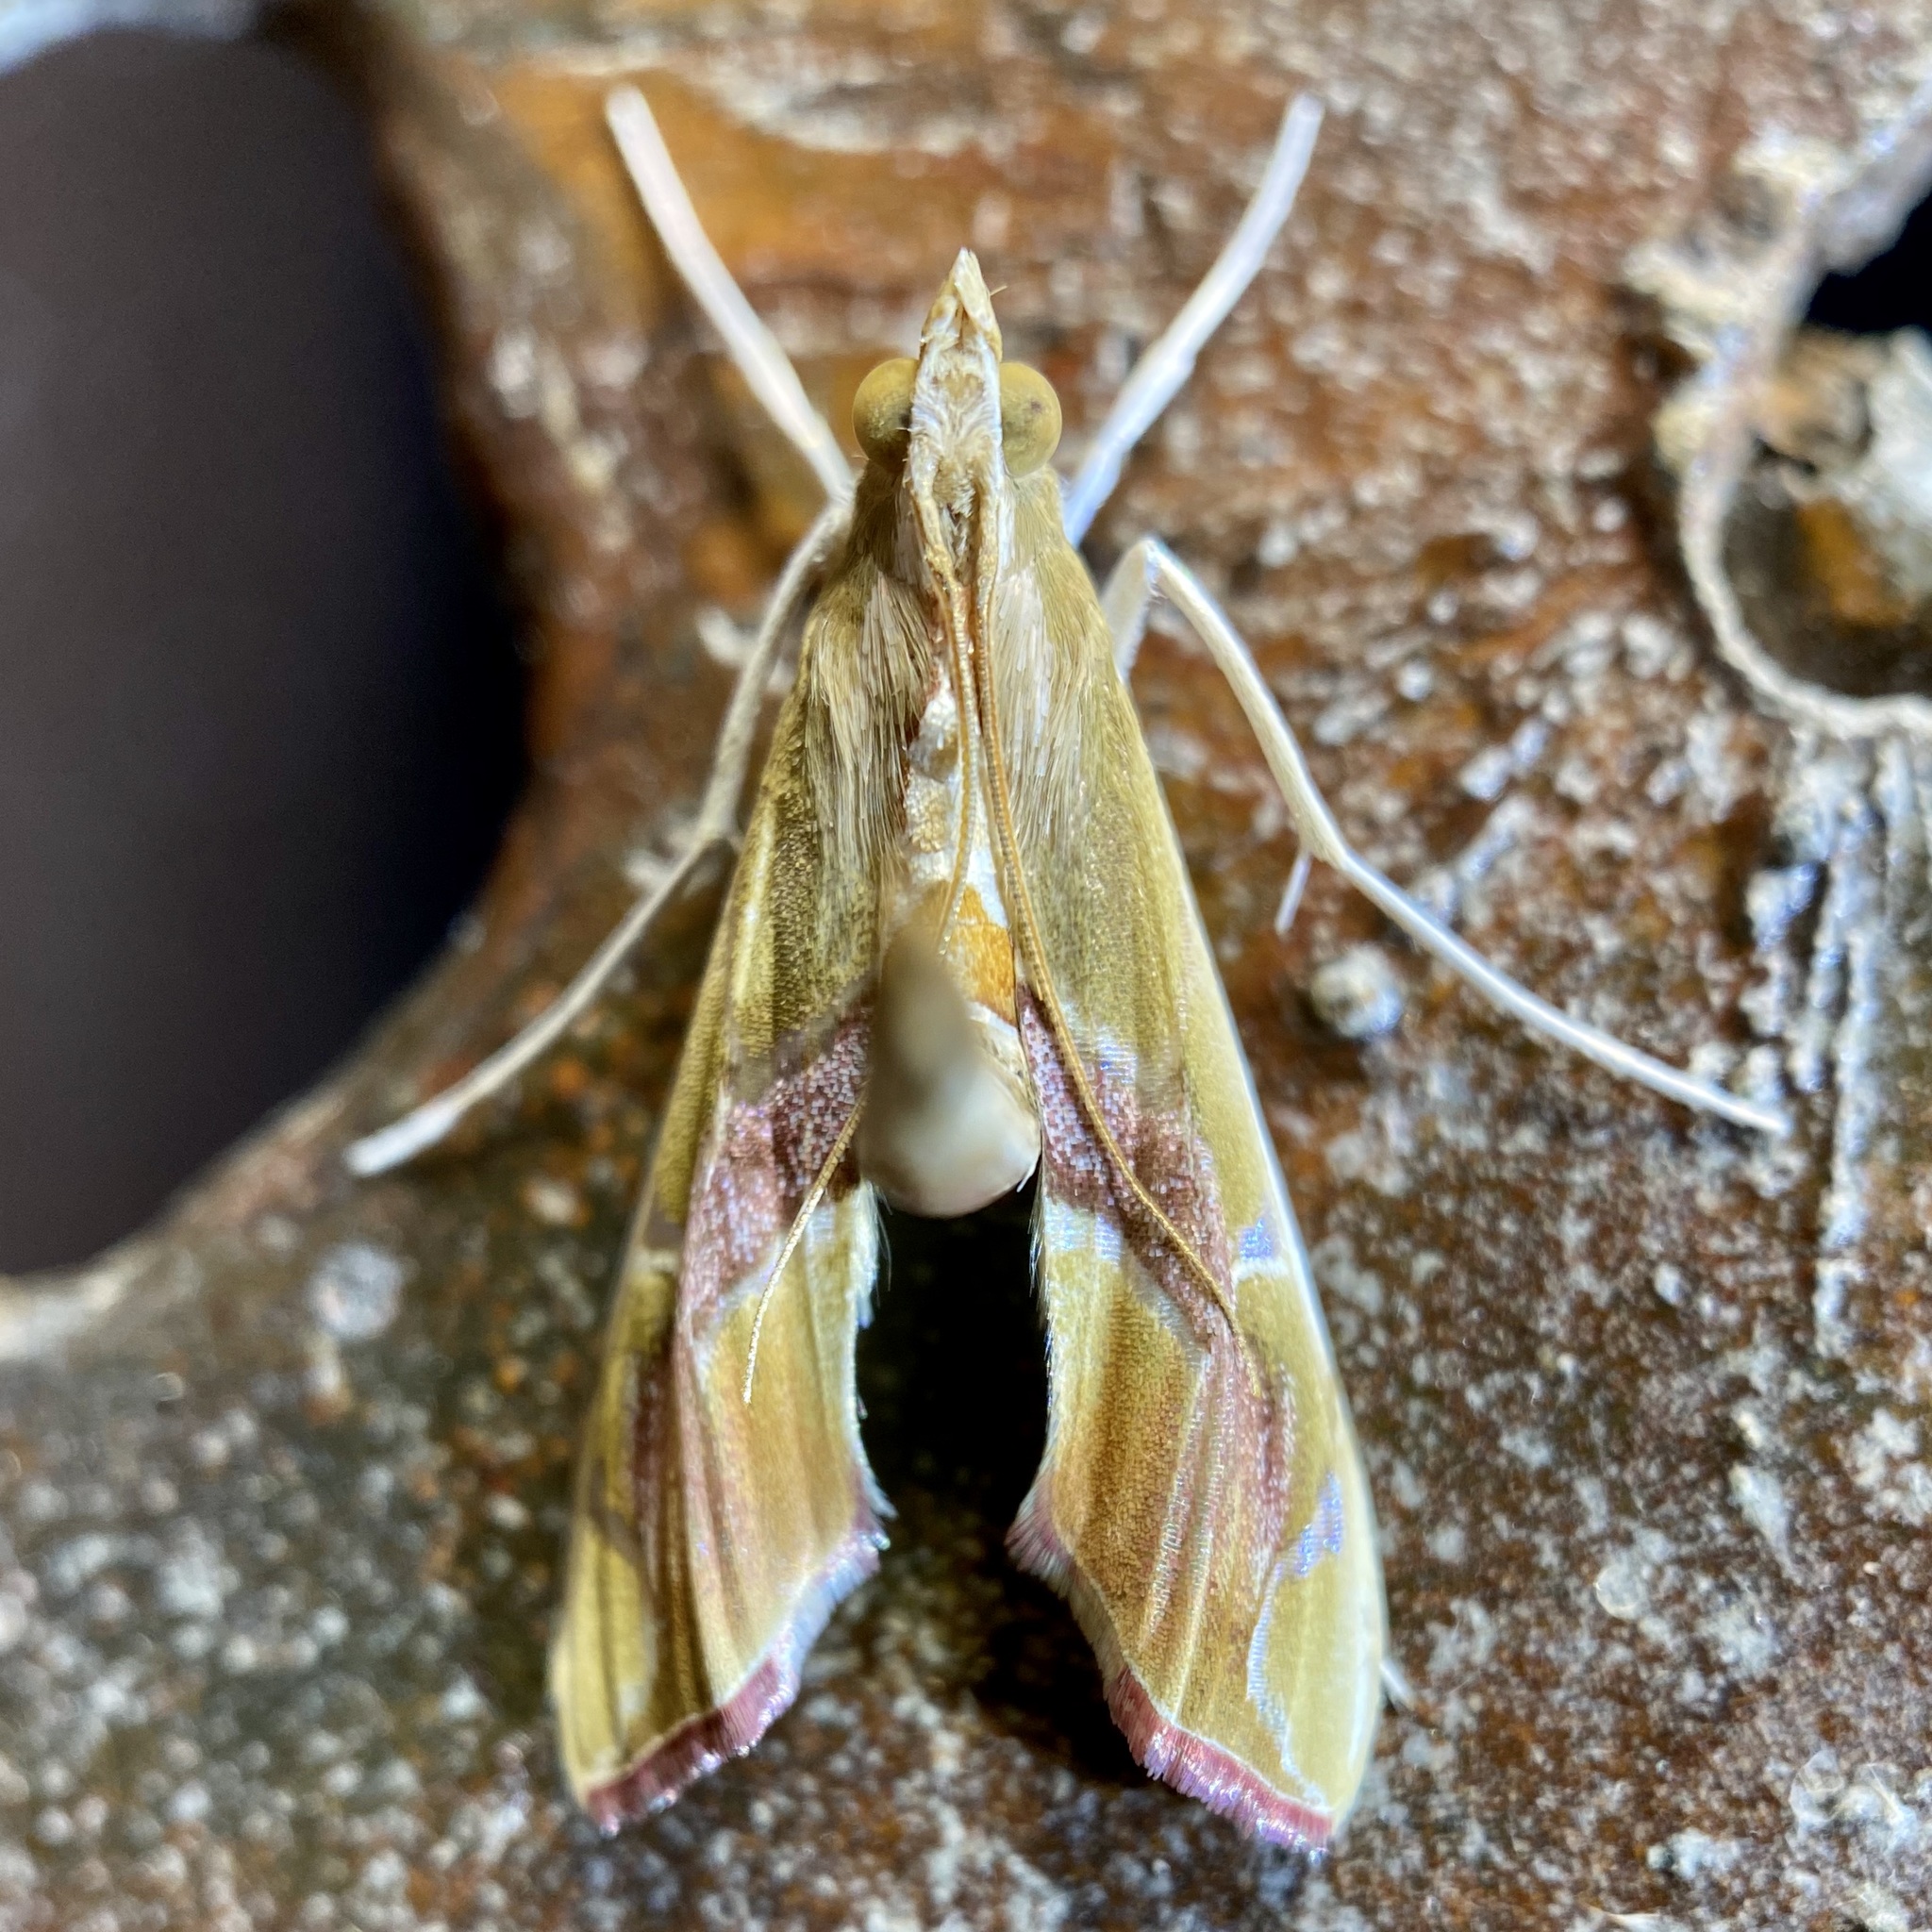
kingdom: Animalia
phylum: Arthropoda
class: Insecta
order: Lepidoptera
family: Crambidae
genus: Agathodes
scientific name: Agathodes monstralis
